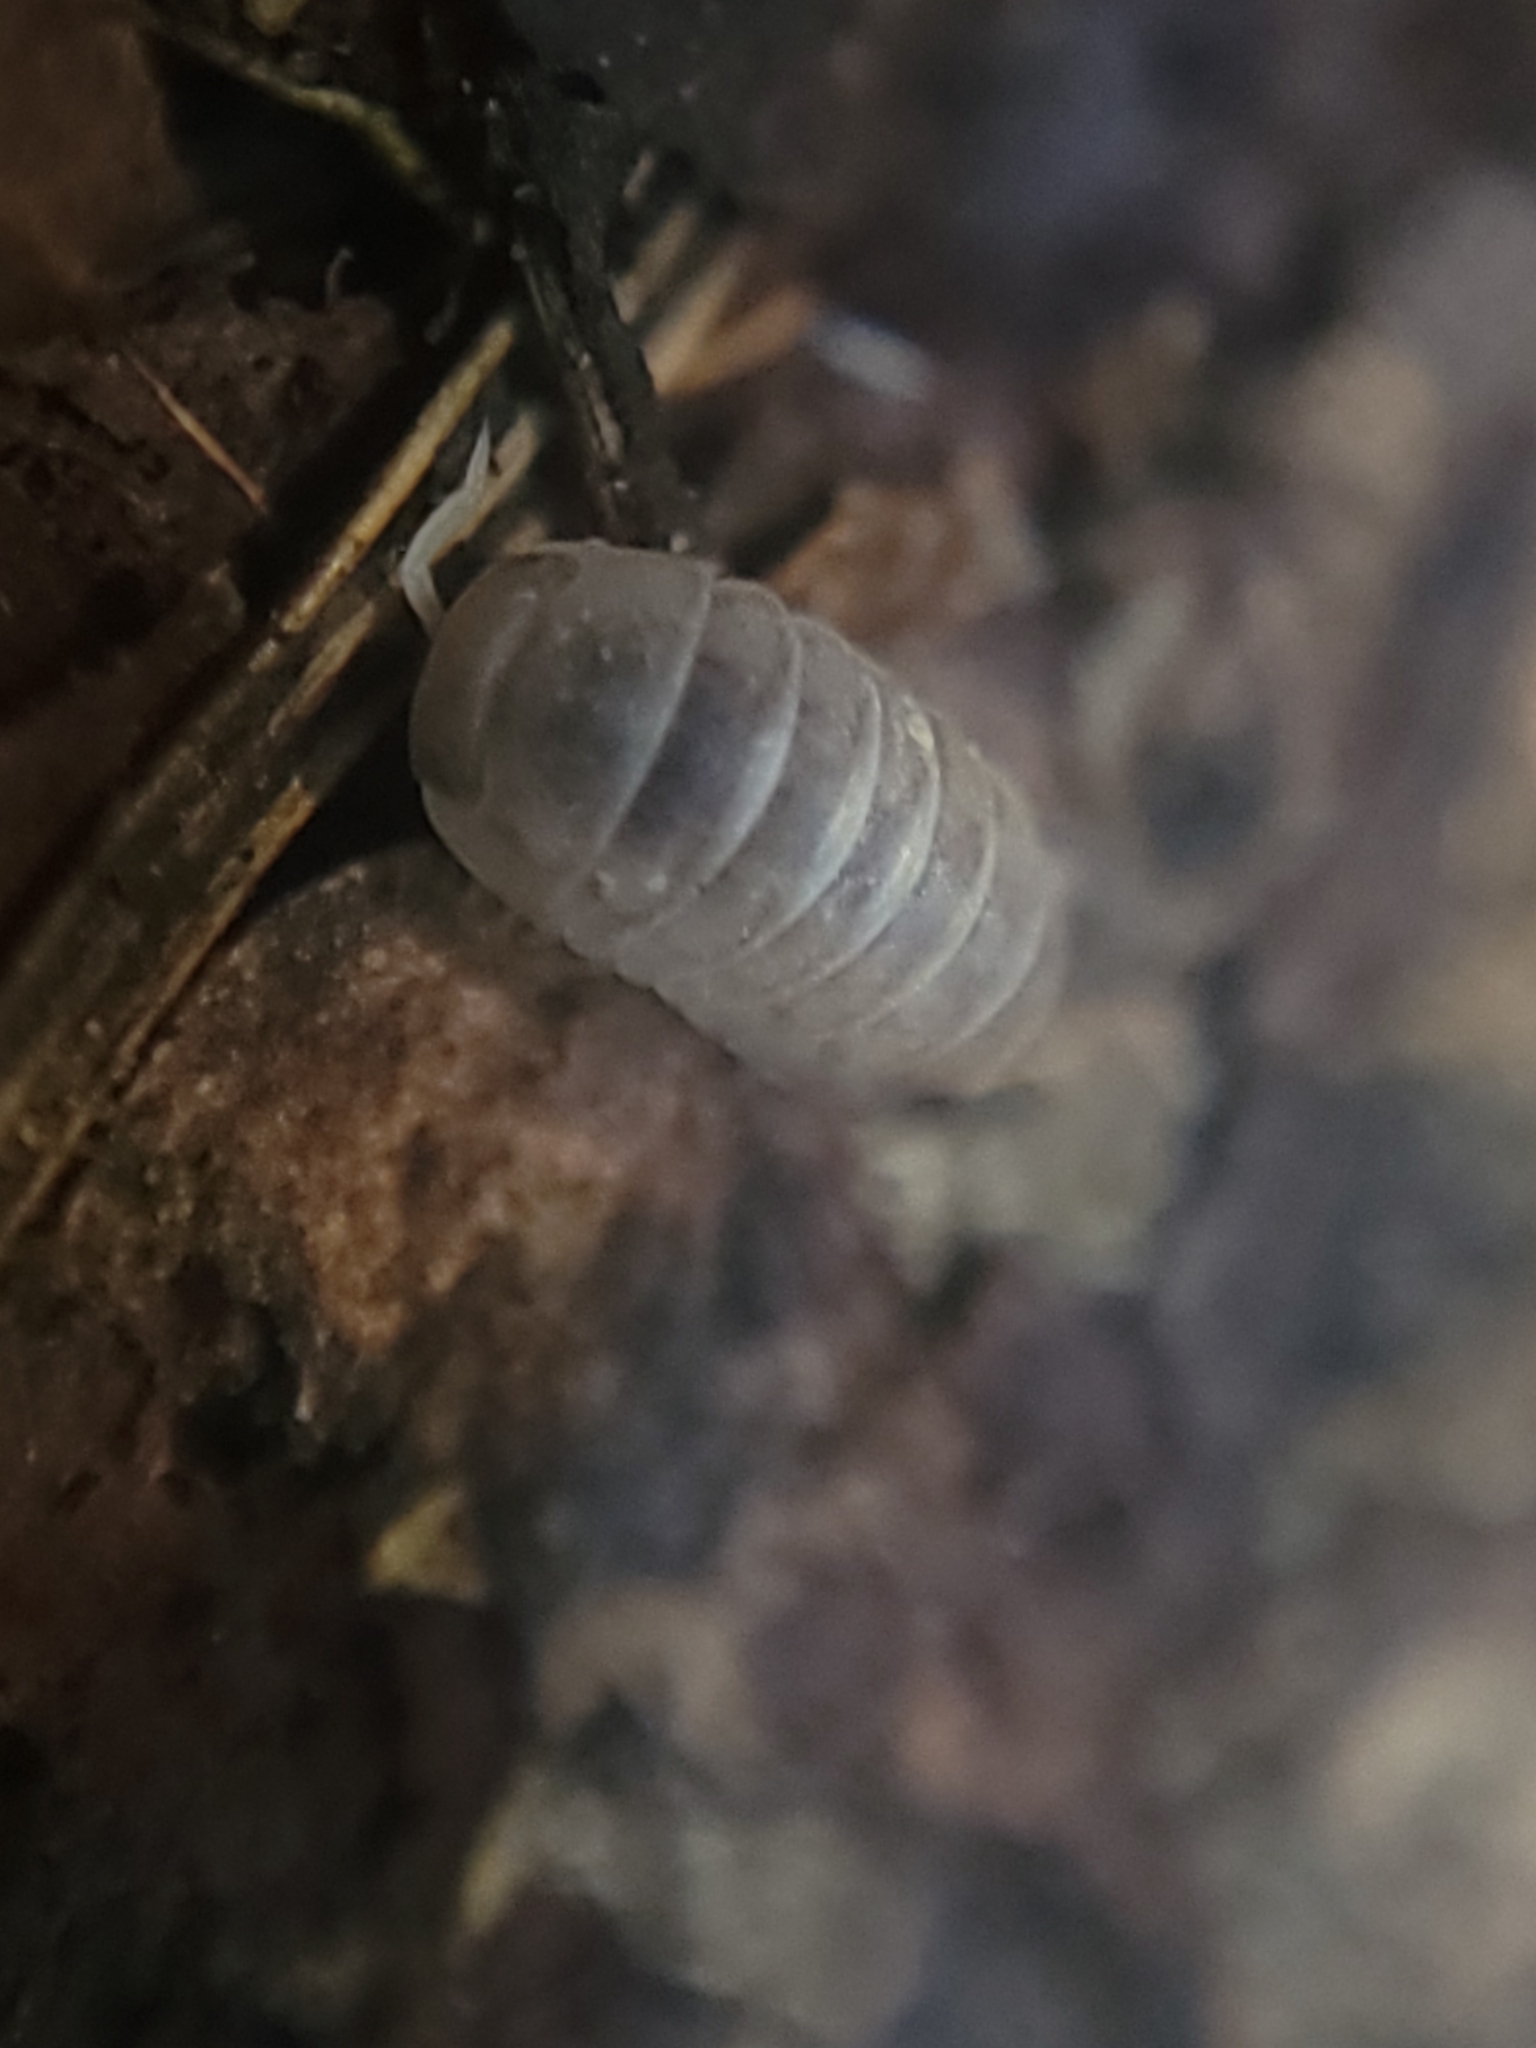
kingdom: Animalia
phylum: Arthropoda
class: Malacostraca
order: Isopoda
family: Armadillidae
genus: Venezillo
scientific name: Venezillo microphthalmus
